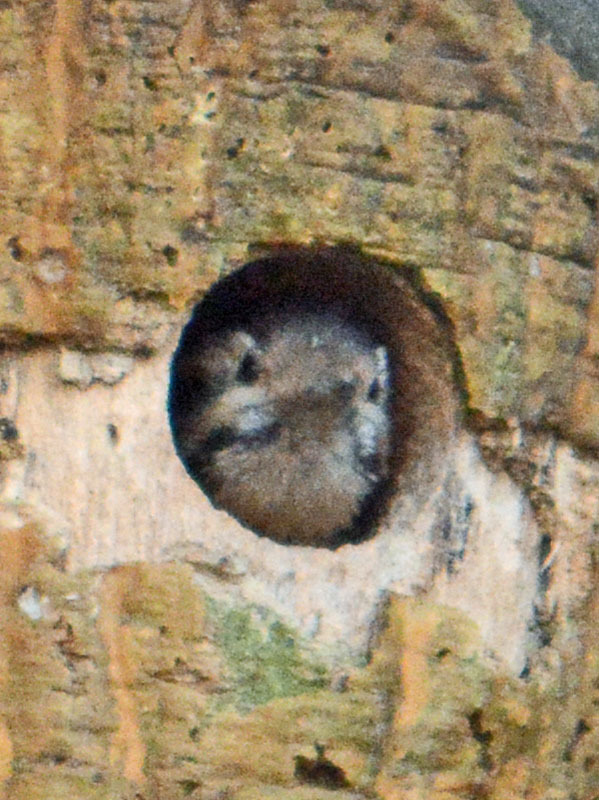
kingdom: Animalia
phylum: Chordata
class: Aves
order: Piciformes
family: Picidae
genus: Dryobates
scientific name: Dryobates scalaris
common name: Ladder-backed woodpecker
